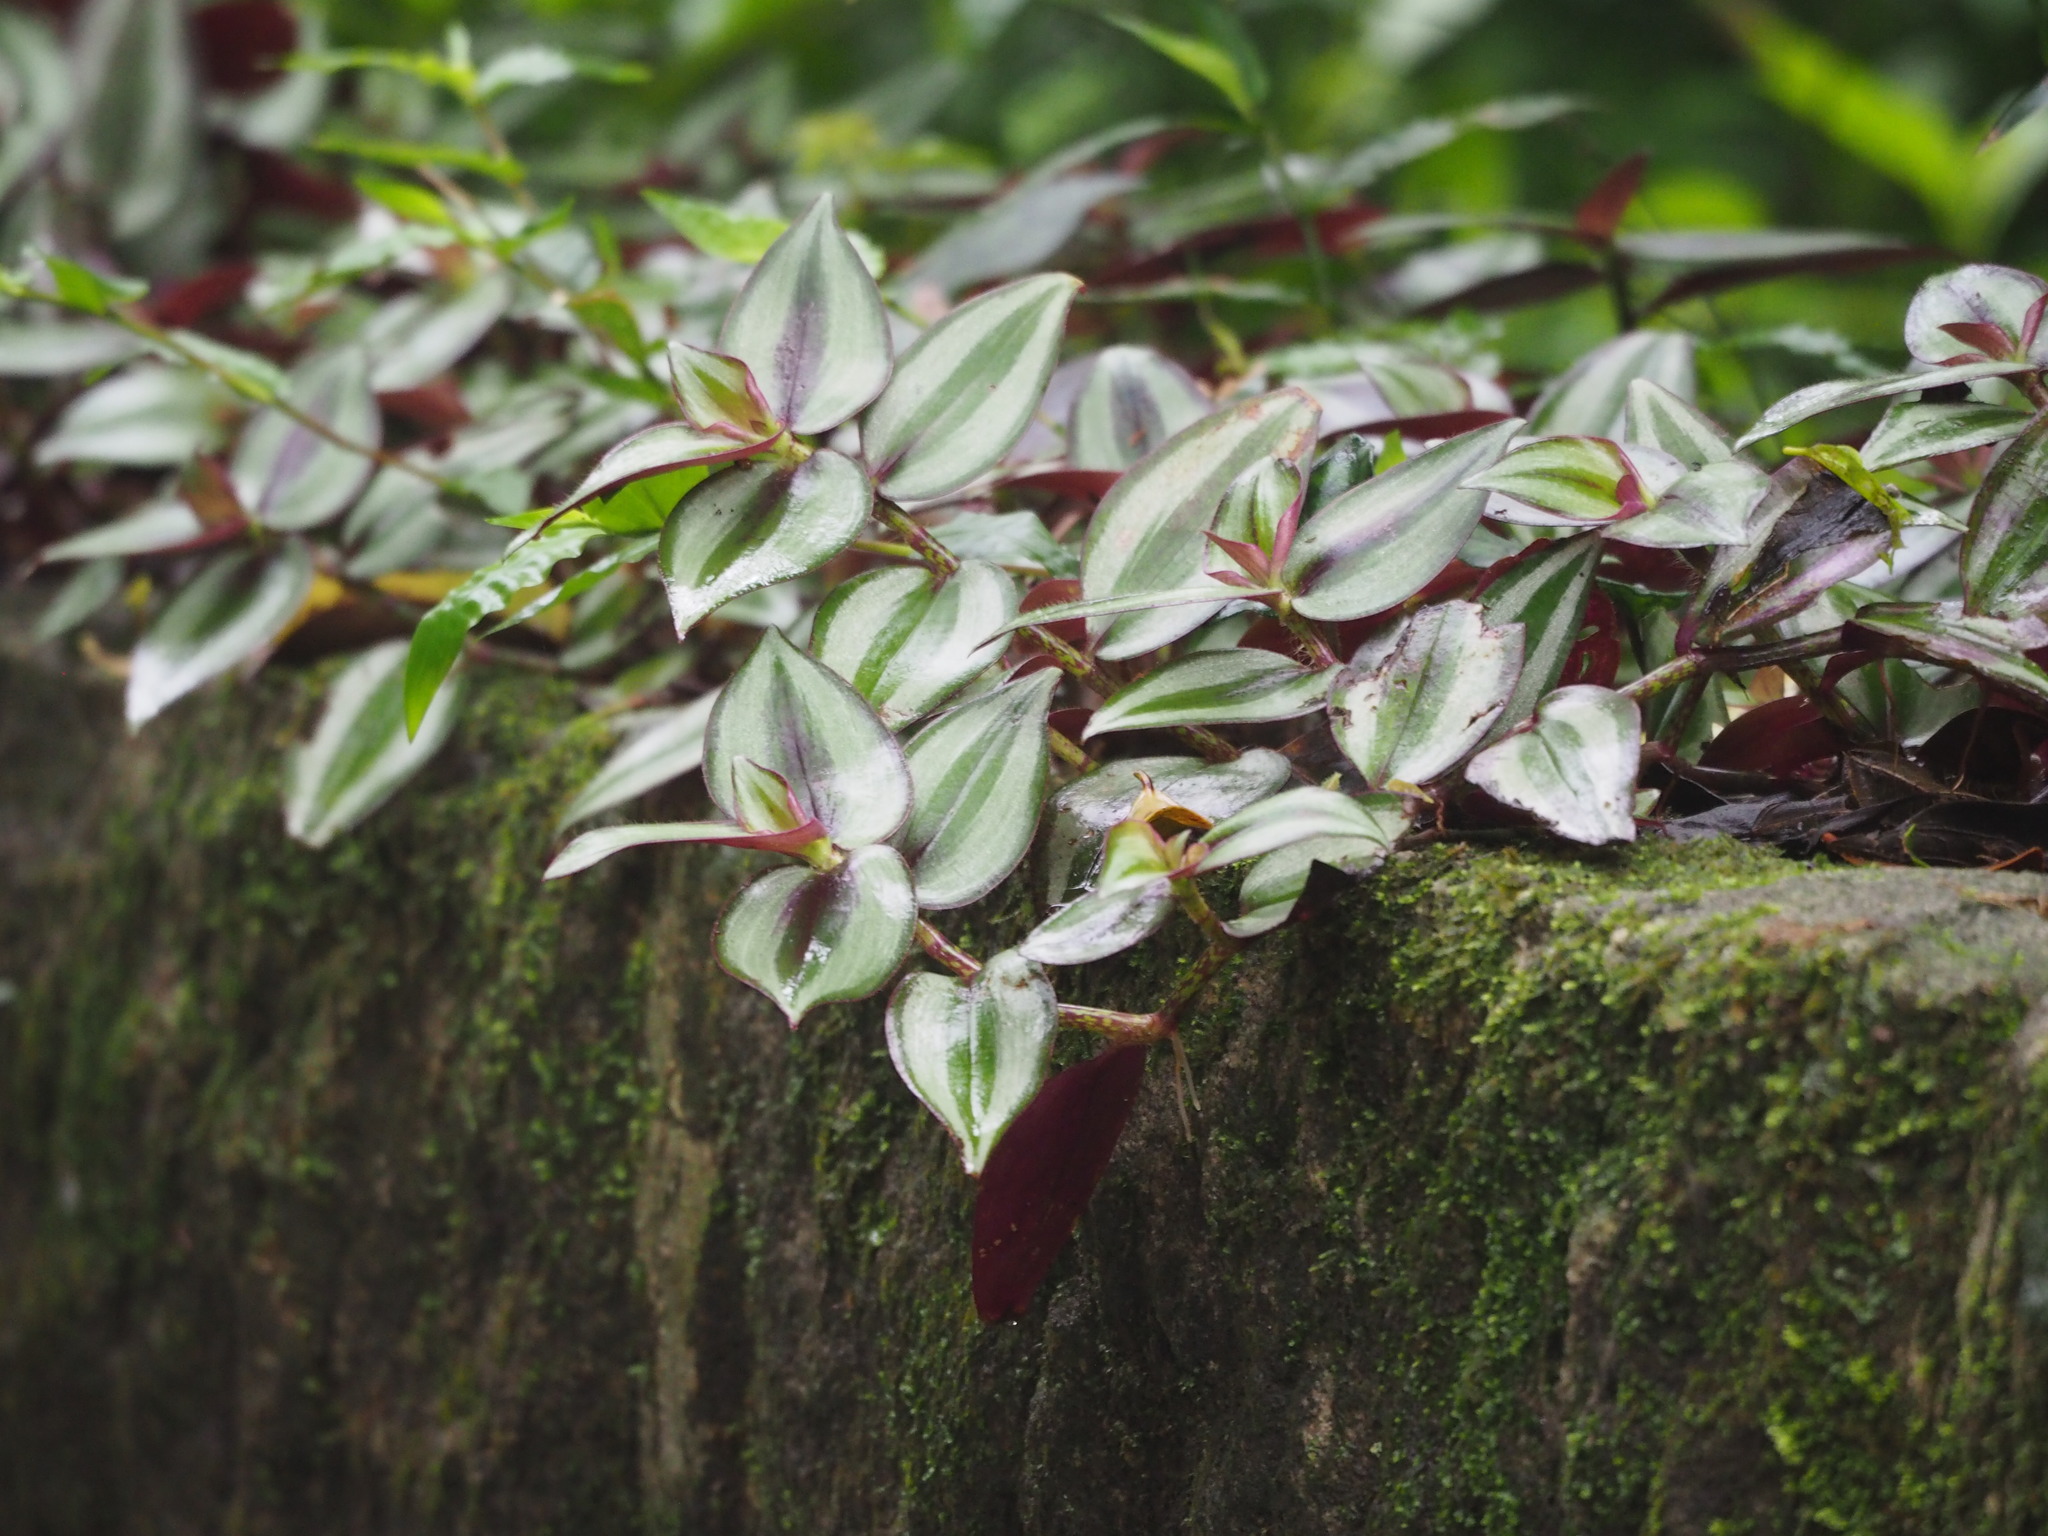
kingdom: Plantae
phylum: Tracheophyta
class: Liliopsida
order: Commelinales
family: Commelinaceae
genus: Tradescantia
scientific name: Tradescantia zebrina
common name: Inchplant
